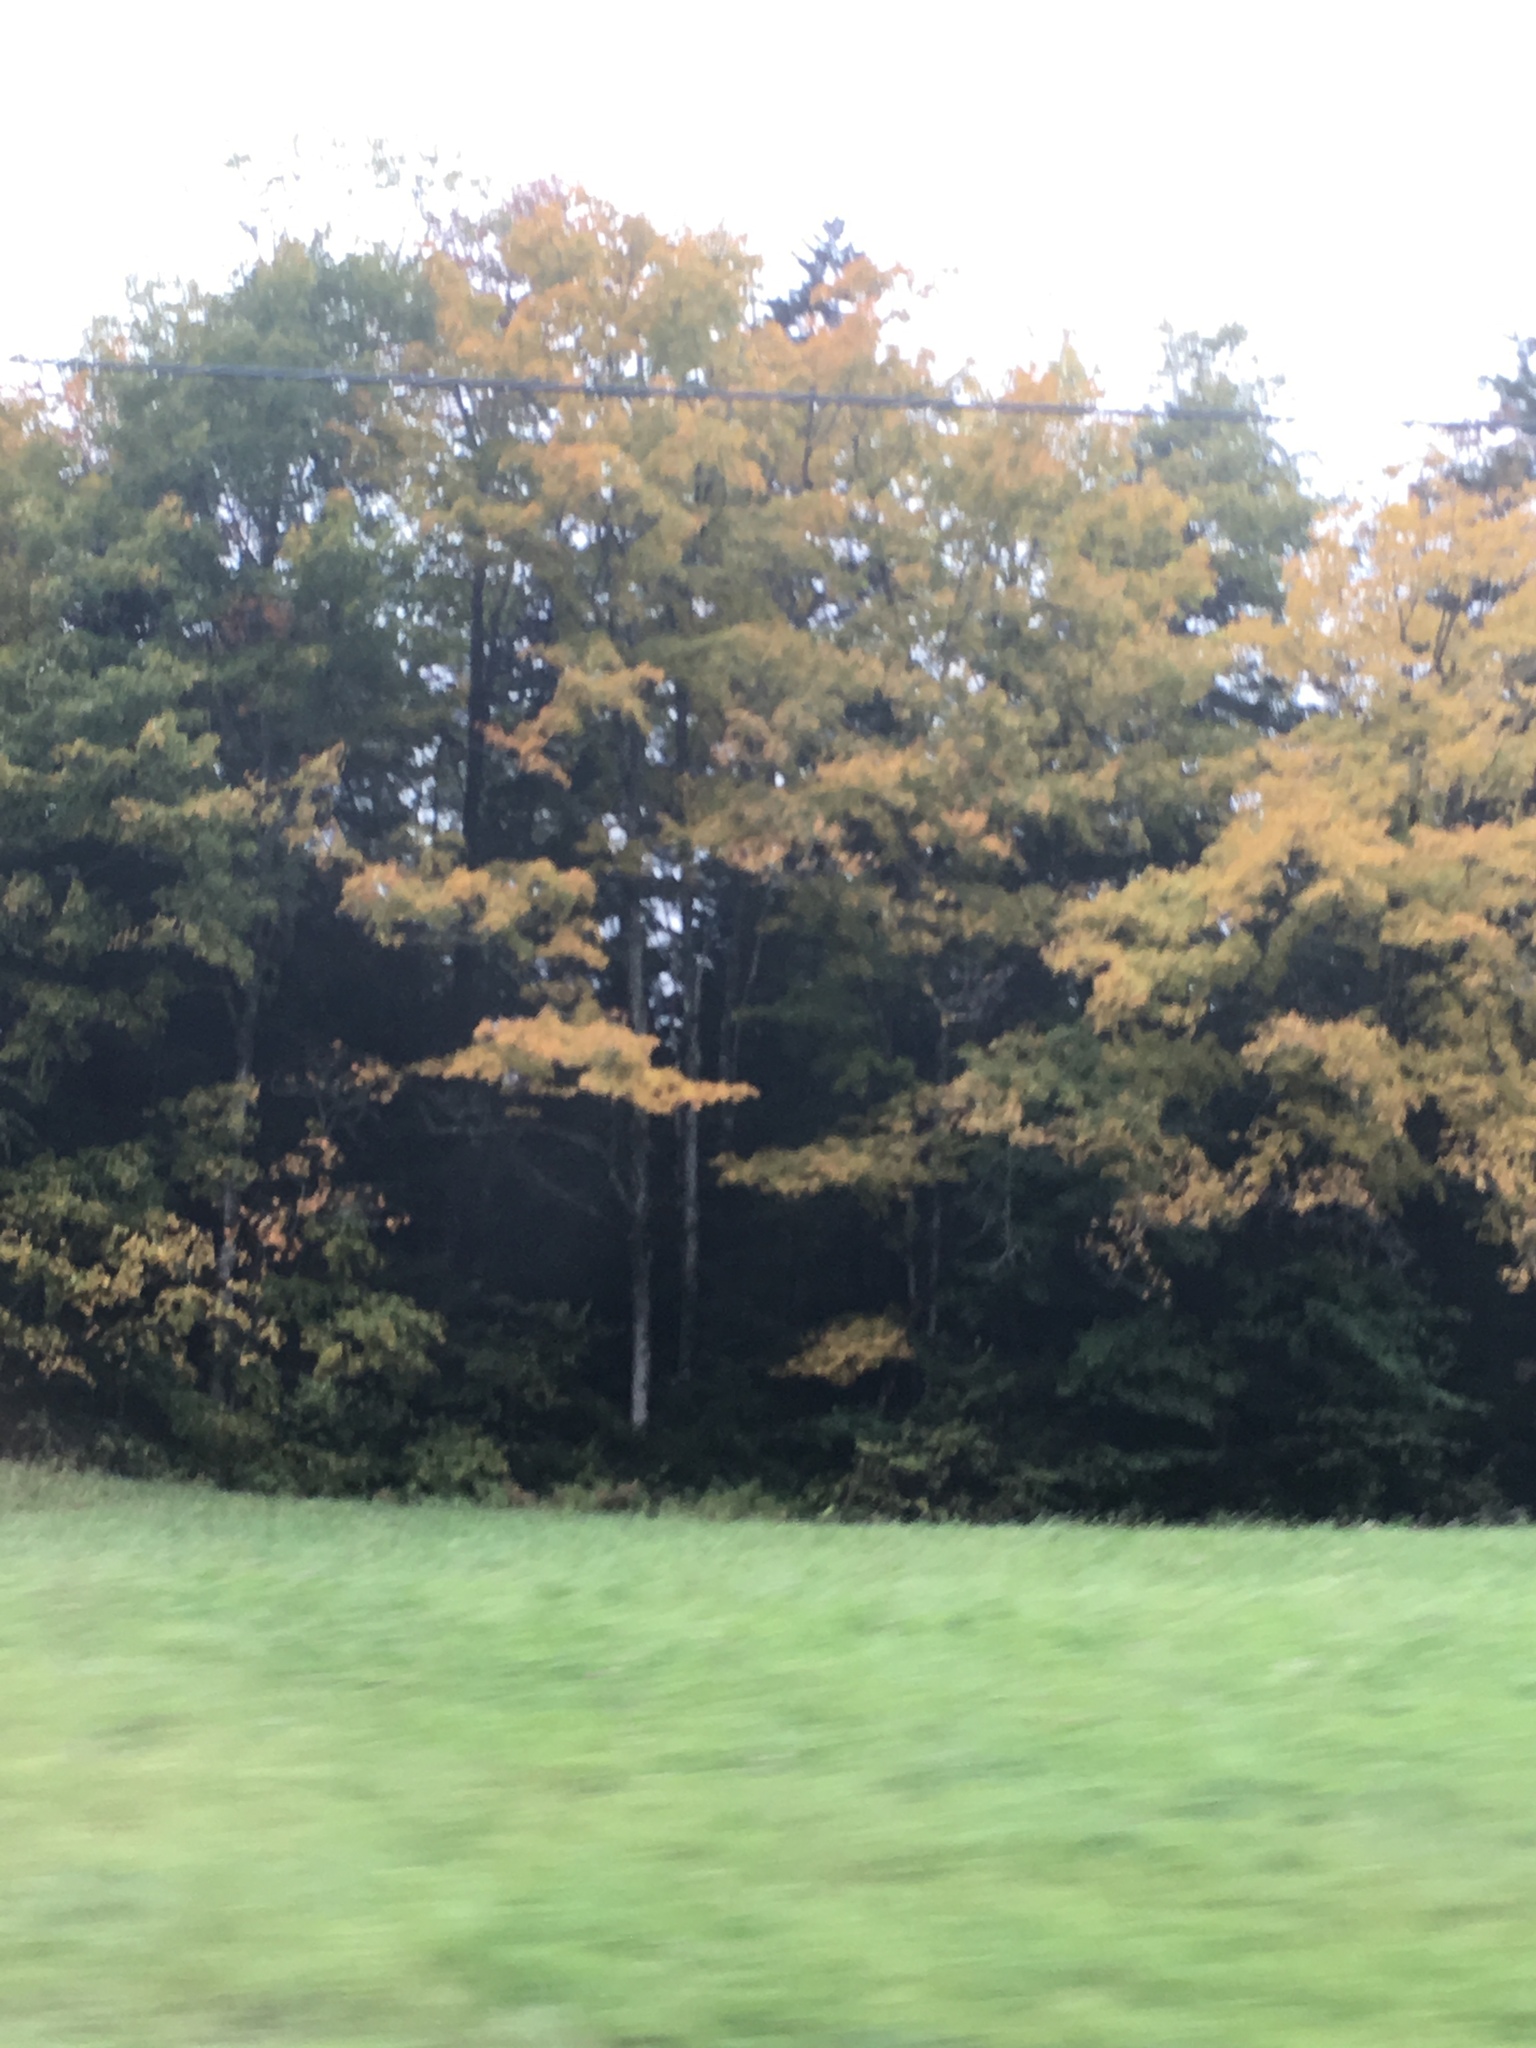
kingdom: Plantae
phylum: Tracheophyta
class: Magnoliopsida
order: Sapindales
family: Sapindaceae
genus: Acer
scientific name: Acer saccharum
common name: Sugar maple
